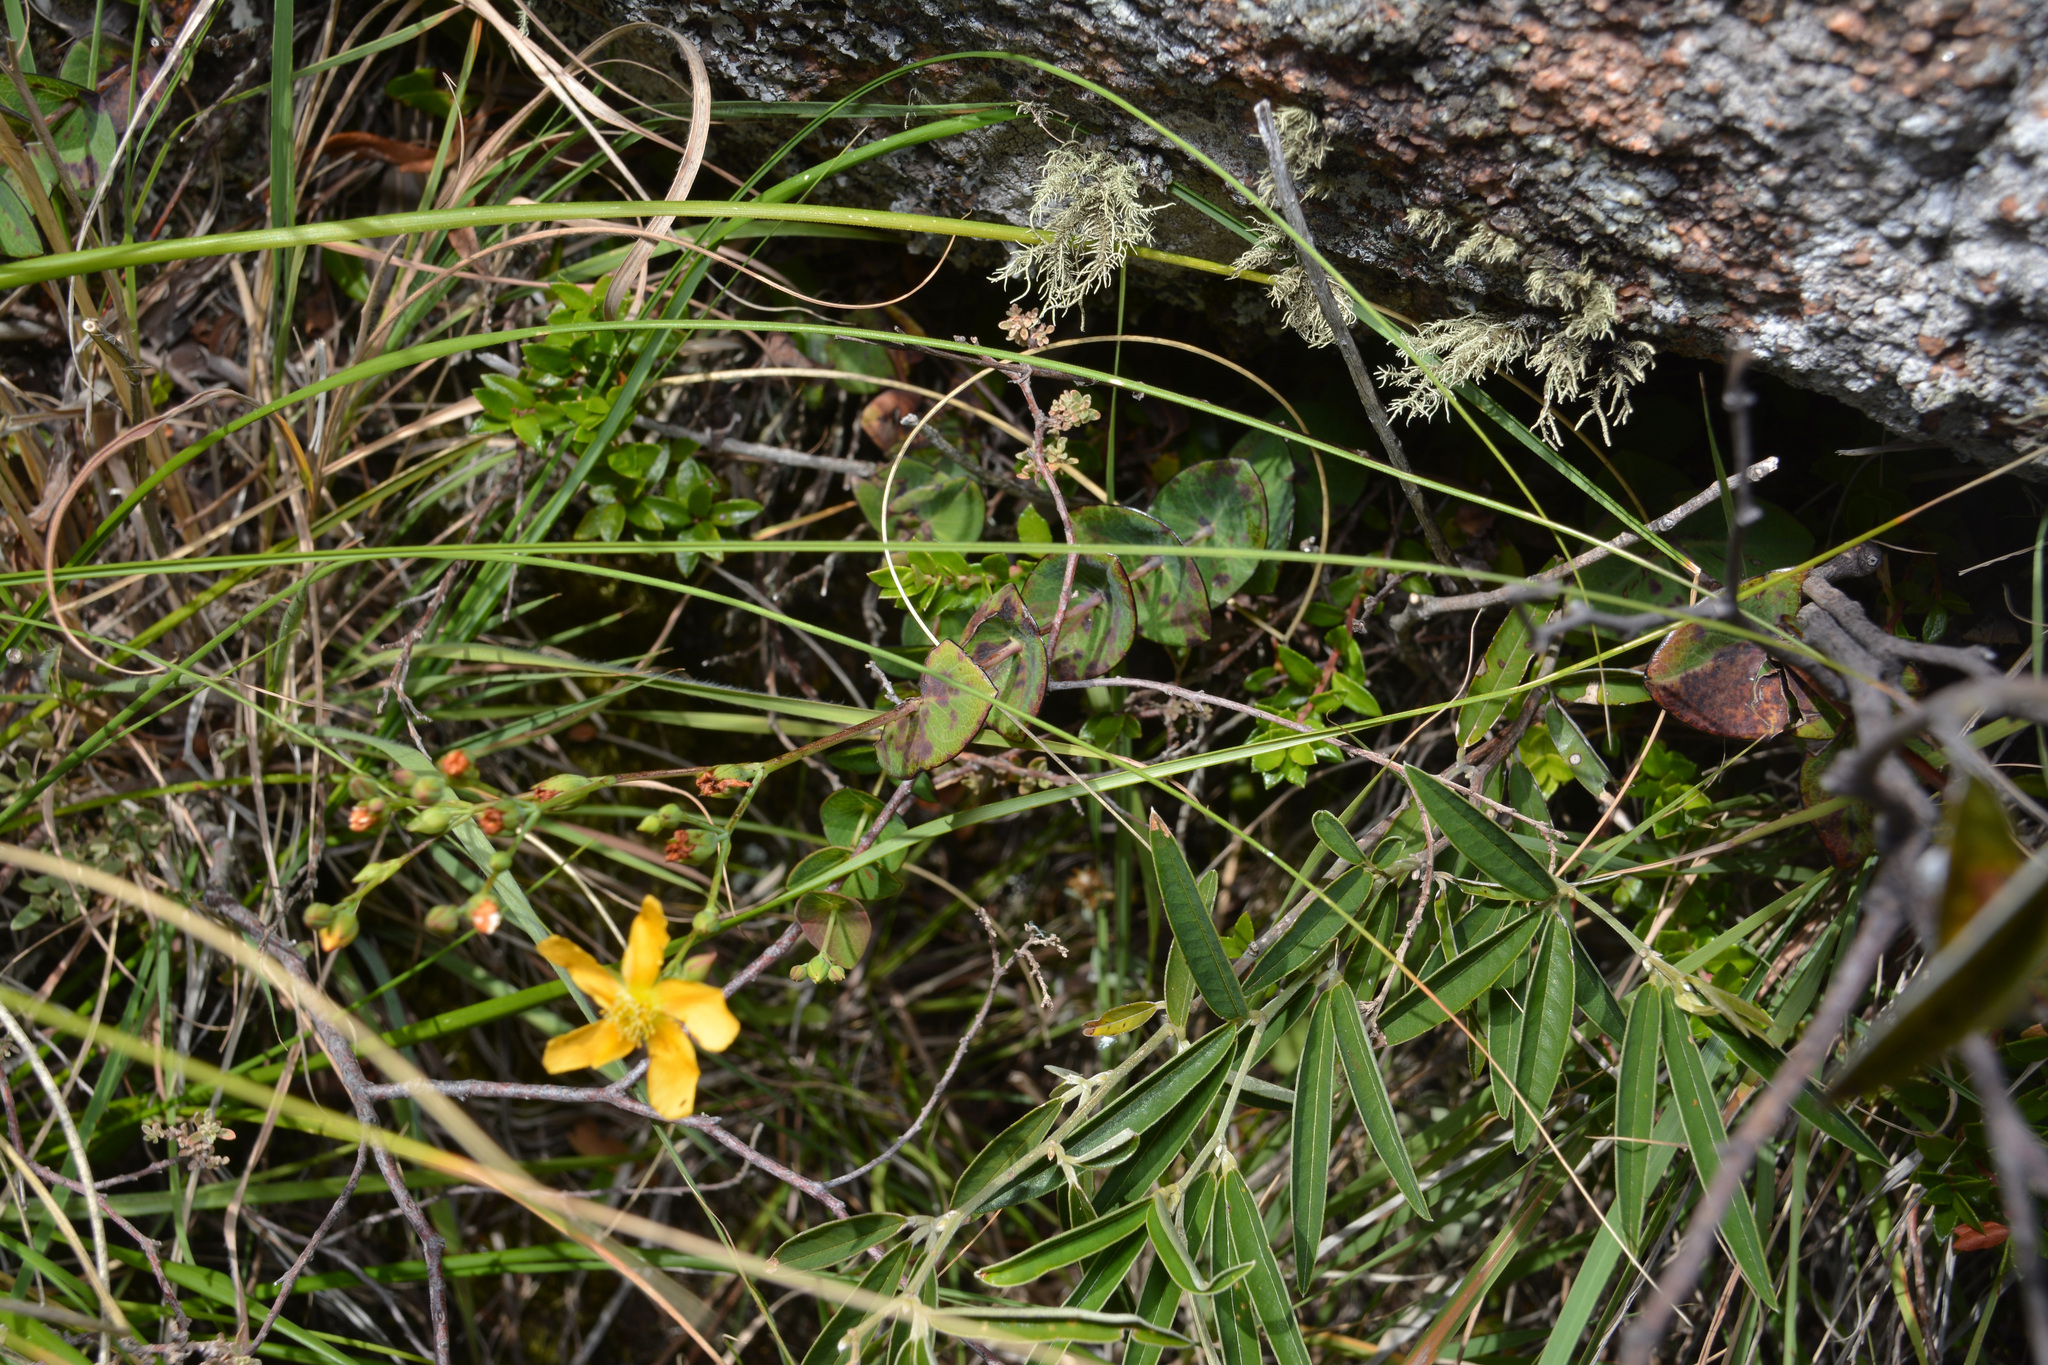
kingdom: Plantae
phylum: Tracheophyta
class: Magnoliopsida
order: Malpighiales
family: Hypericaceae
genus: Hypericum
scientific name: Hypericum connatum
